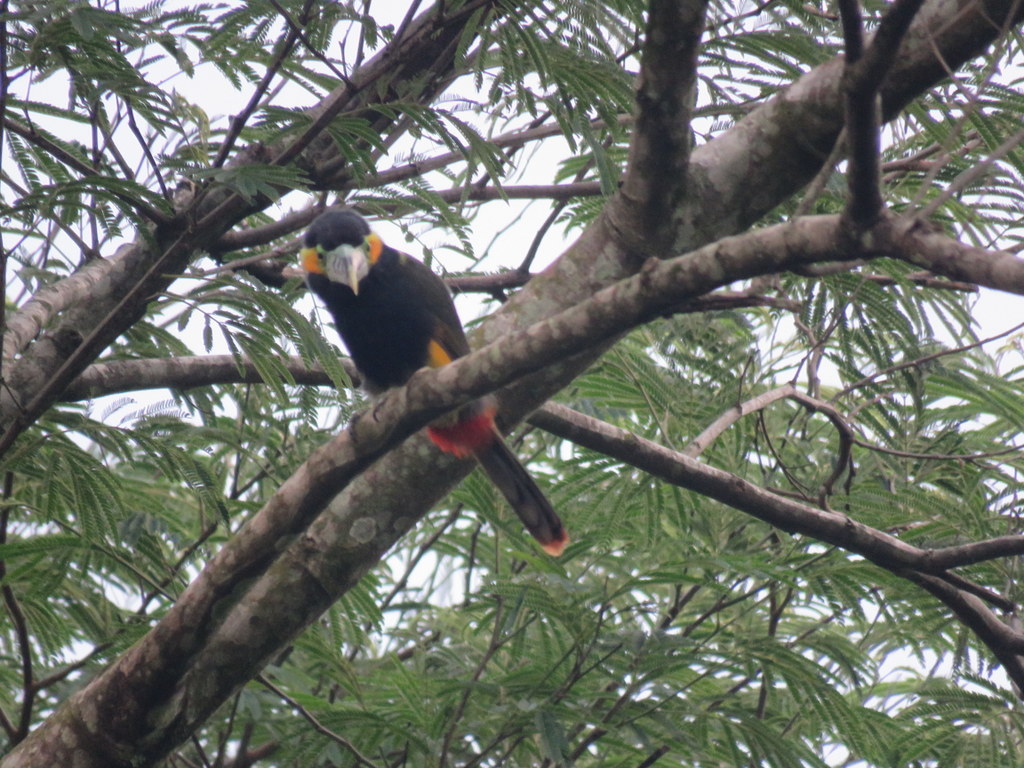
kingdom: Animalia
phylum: Chordata
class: Aves
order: Piciformes
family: Ramphastidae
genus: Selenidera
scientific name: Selenidera maculirostris
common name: Spot-billed toucanet
